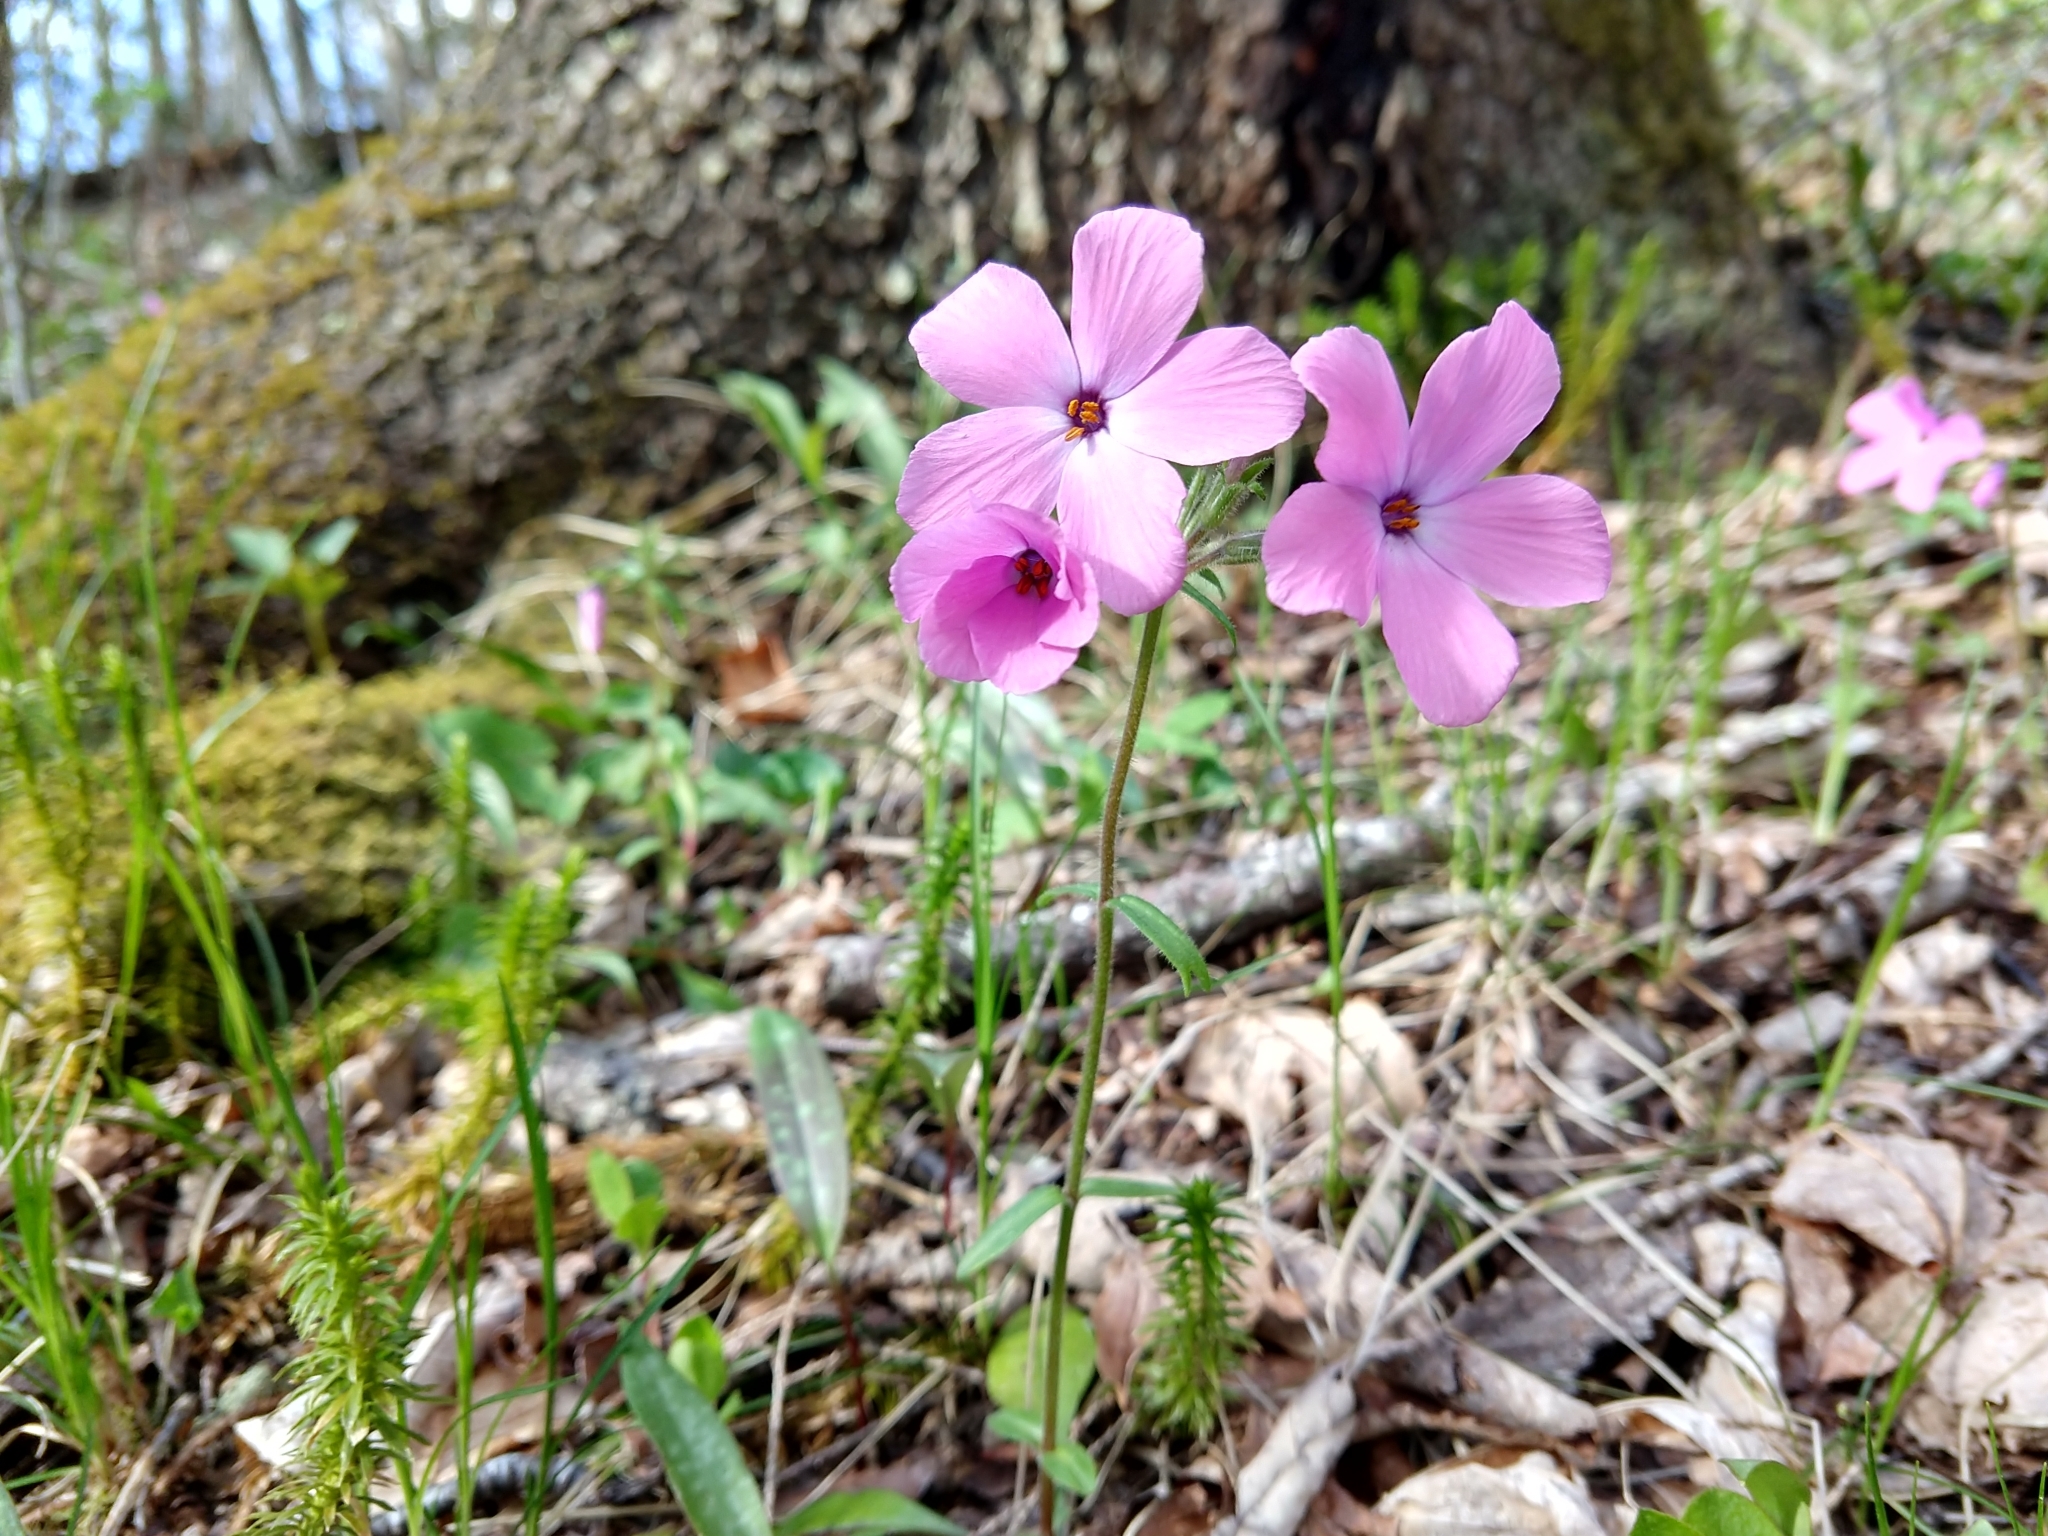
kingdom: Plantae
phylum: Tracheophyta
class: Magnoliopsida
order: Ericales
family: Polemoniaceae
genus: Phlox
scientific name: Phlox stolonifera
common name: Creeping phlox
